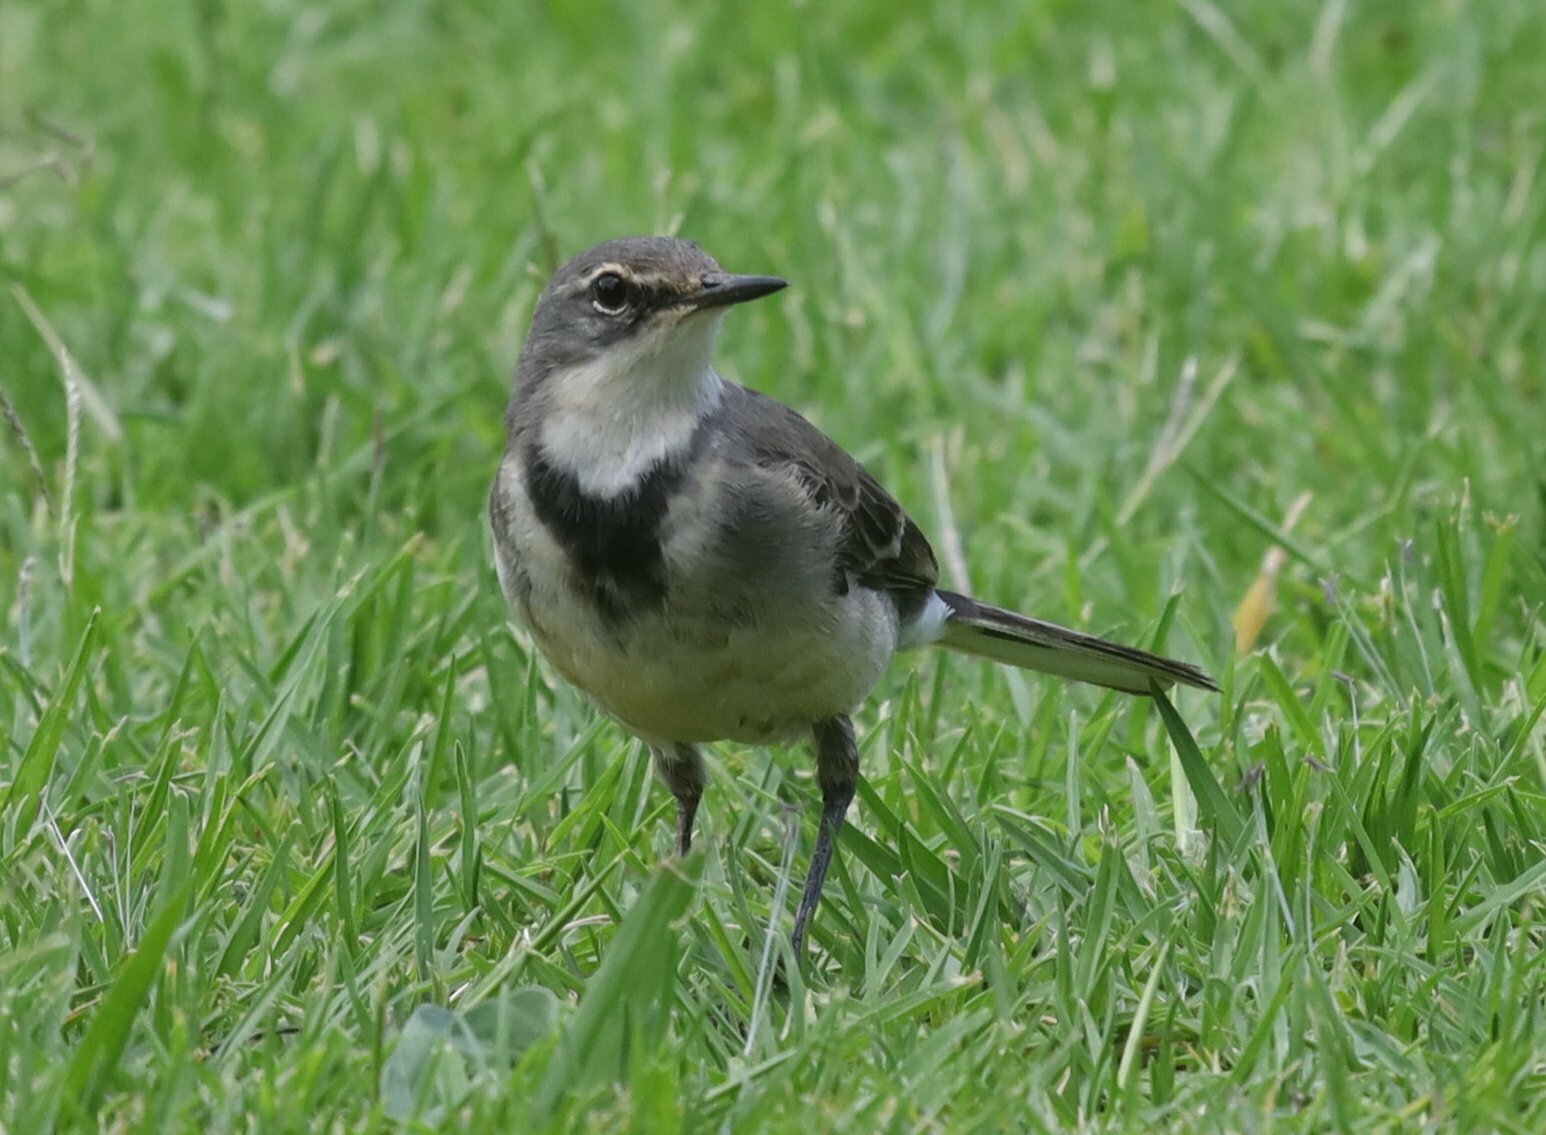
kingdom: Animalia
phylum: Chordata
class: Aves
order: Passeriformes
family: Motacillidae
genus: Motacilla
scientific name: Motacilla capensis
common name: Cape wagtail
